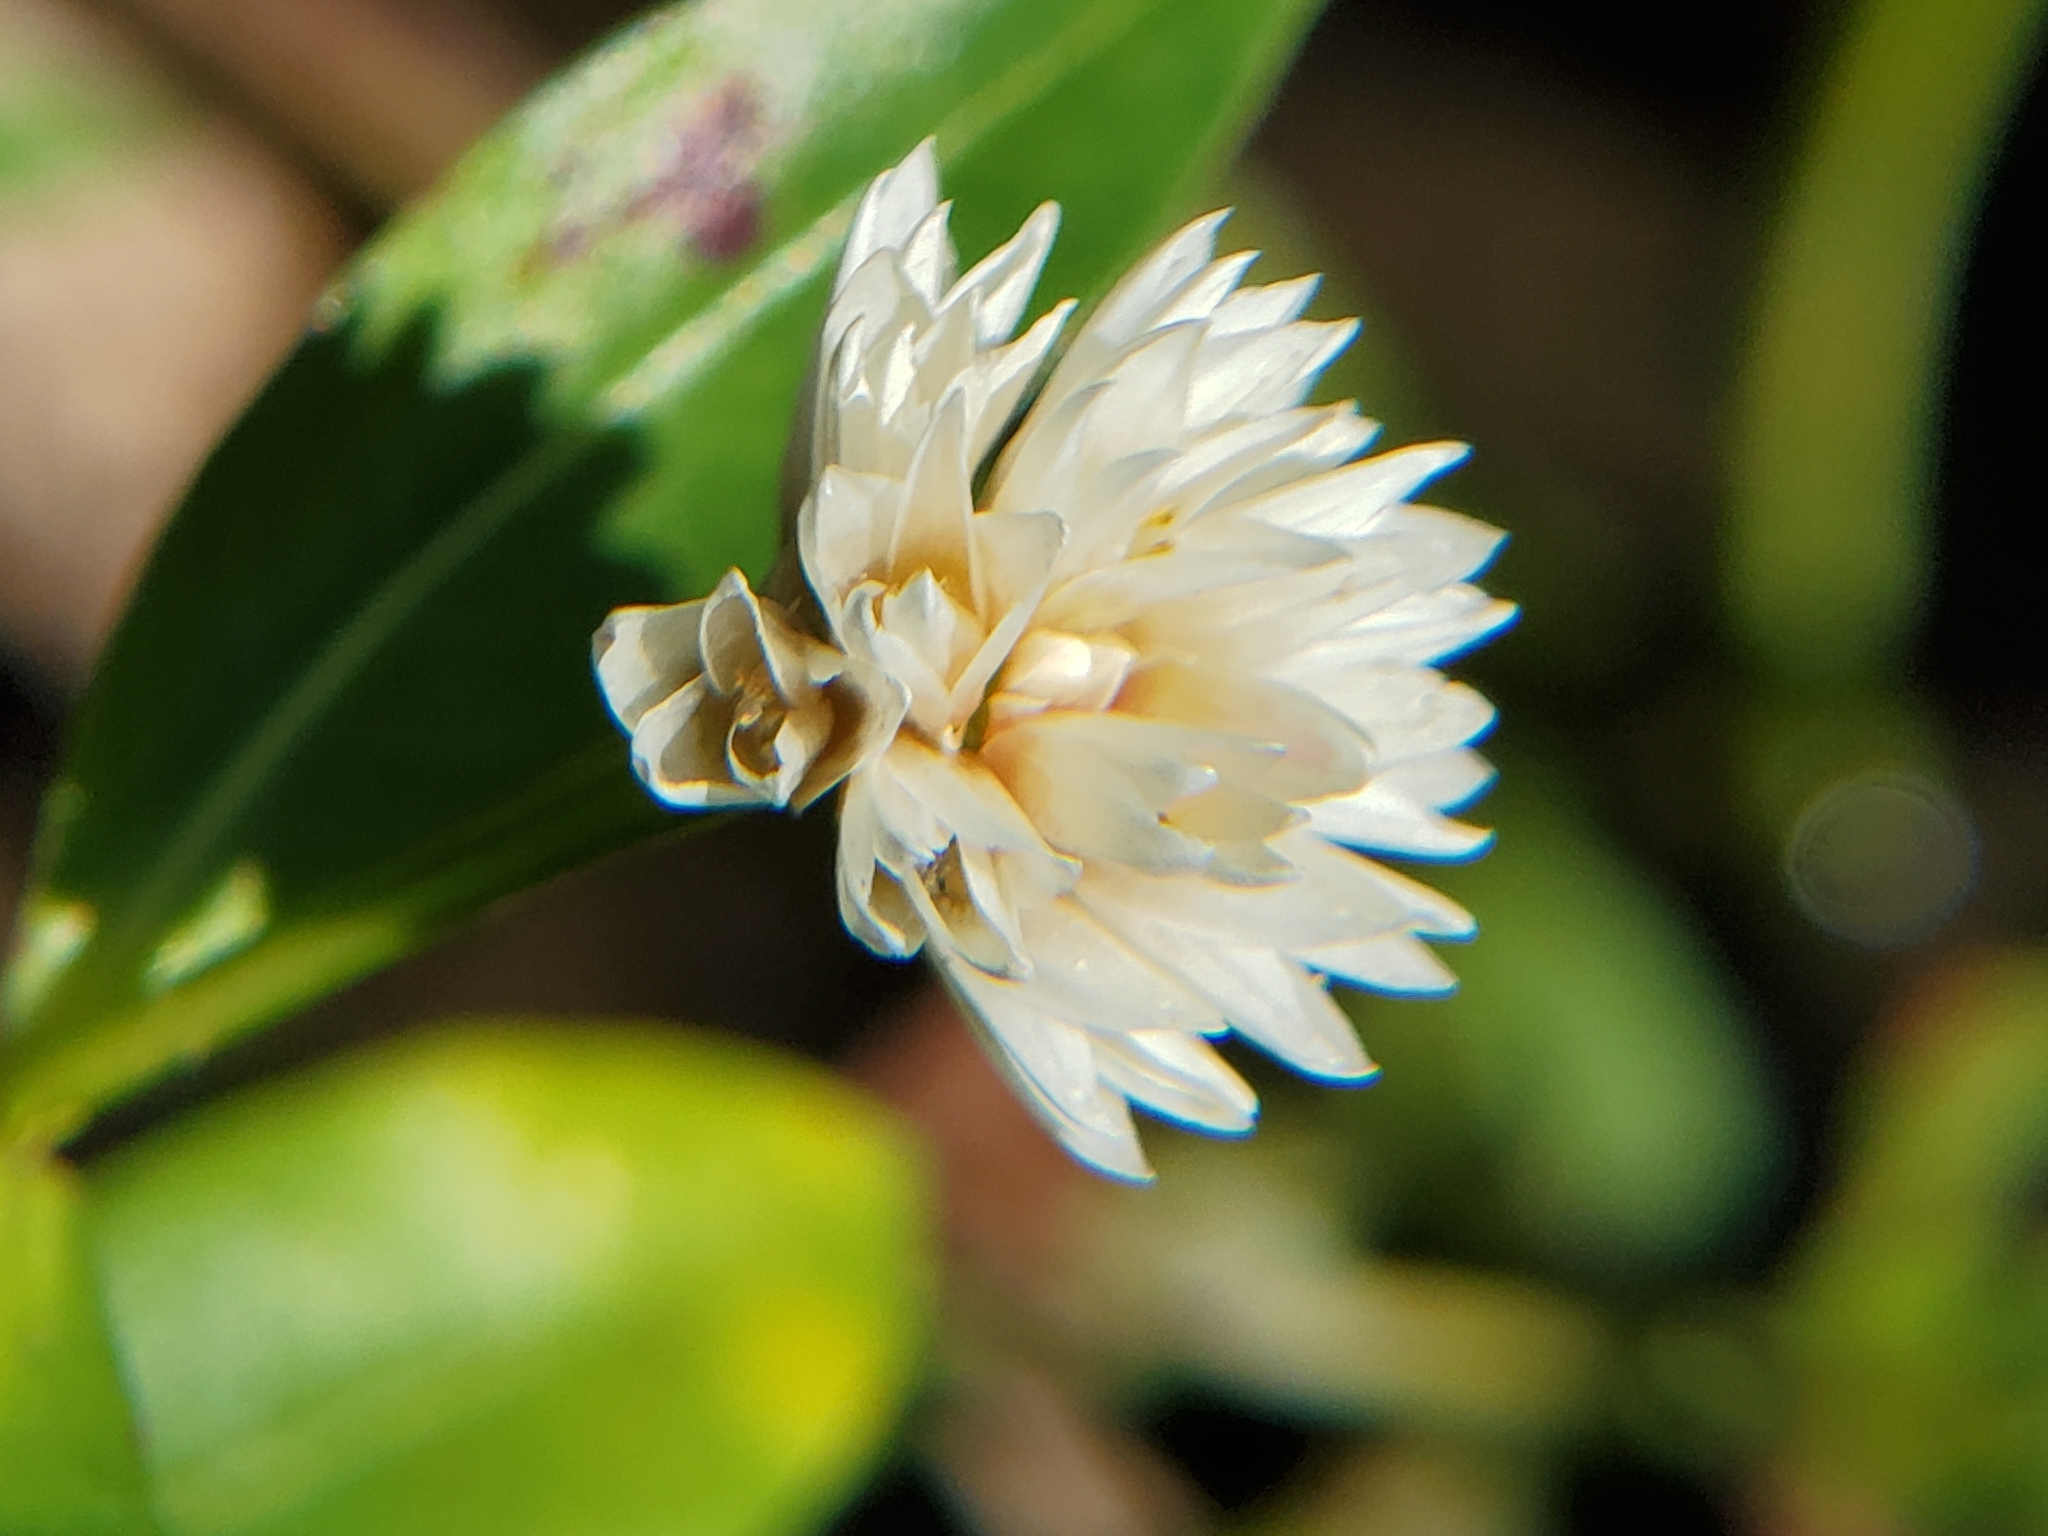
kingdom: Plantae
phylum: Tracheophyta
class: Magnoliopsida
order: Caryophyllales
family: Amaranthaceae
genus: Alternanthera
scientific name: Alternanthera philoxeroides
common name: Alligatorweed
